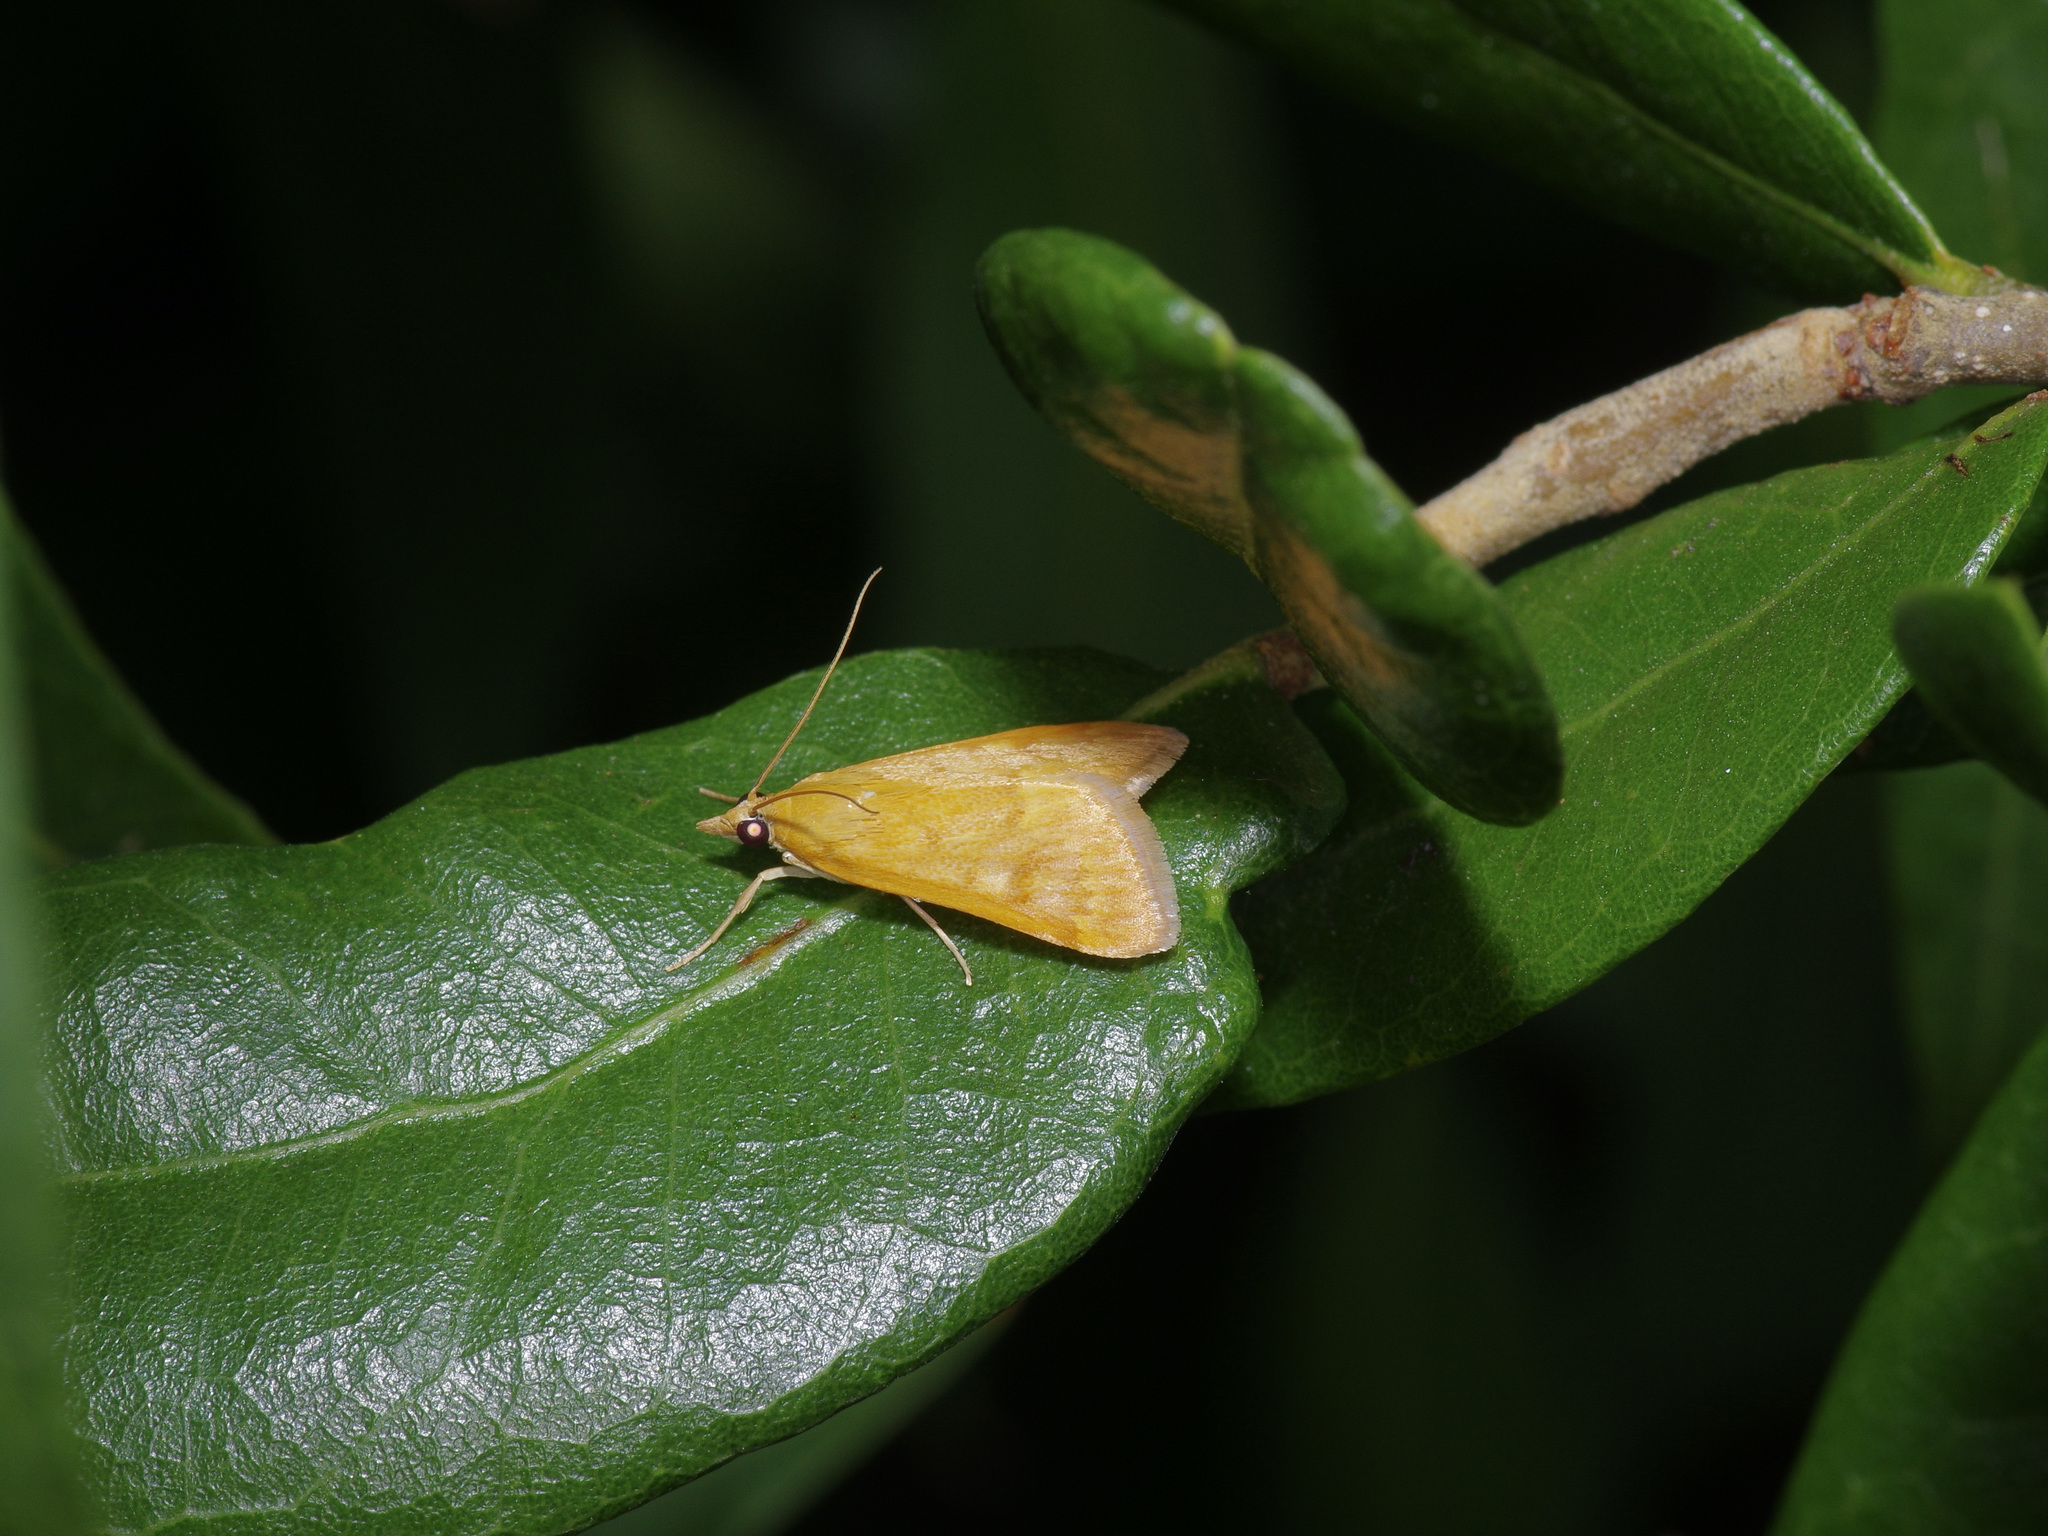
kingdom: Animalia
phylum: Arthropoda
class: Insecta
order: Lepidoptera
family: Crambidae
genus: Achyra
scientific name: Achyra rantalis
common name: Garden webworm
